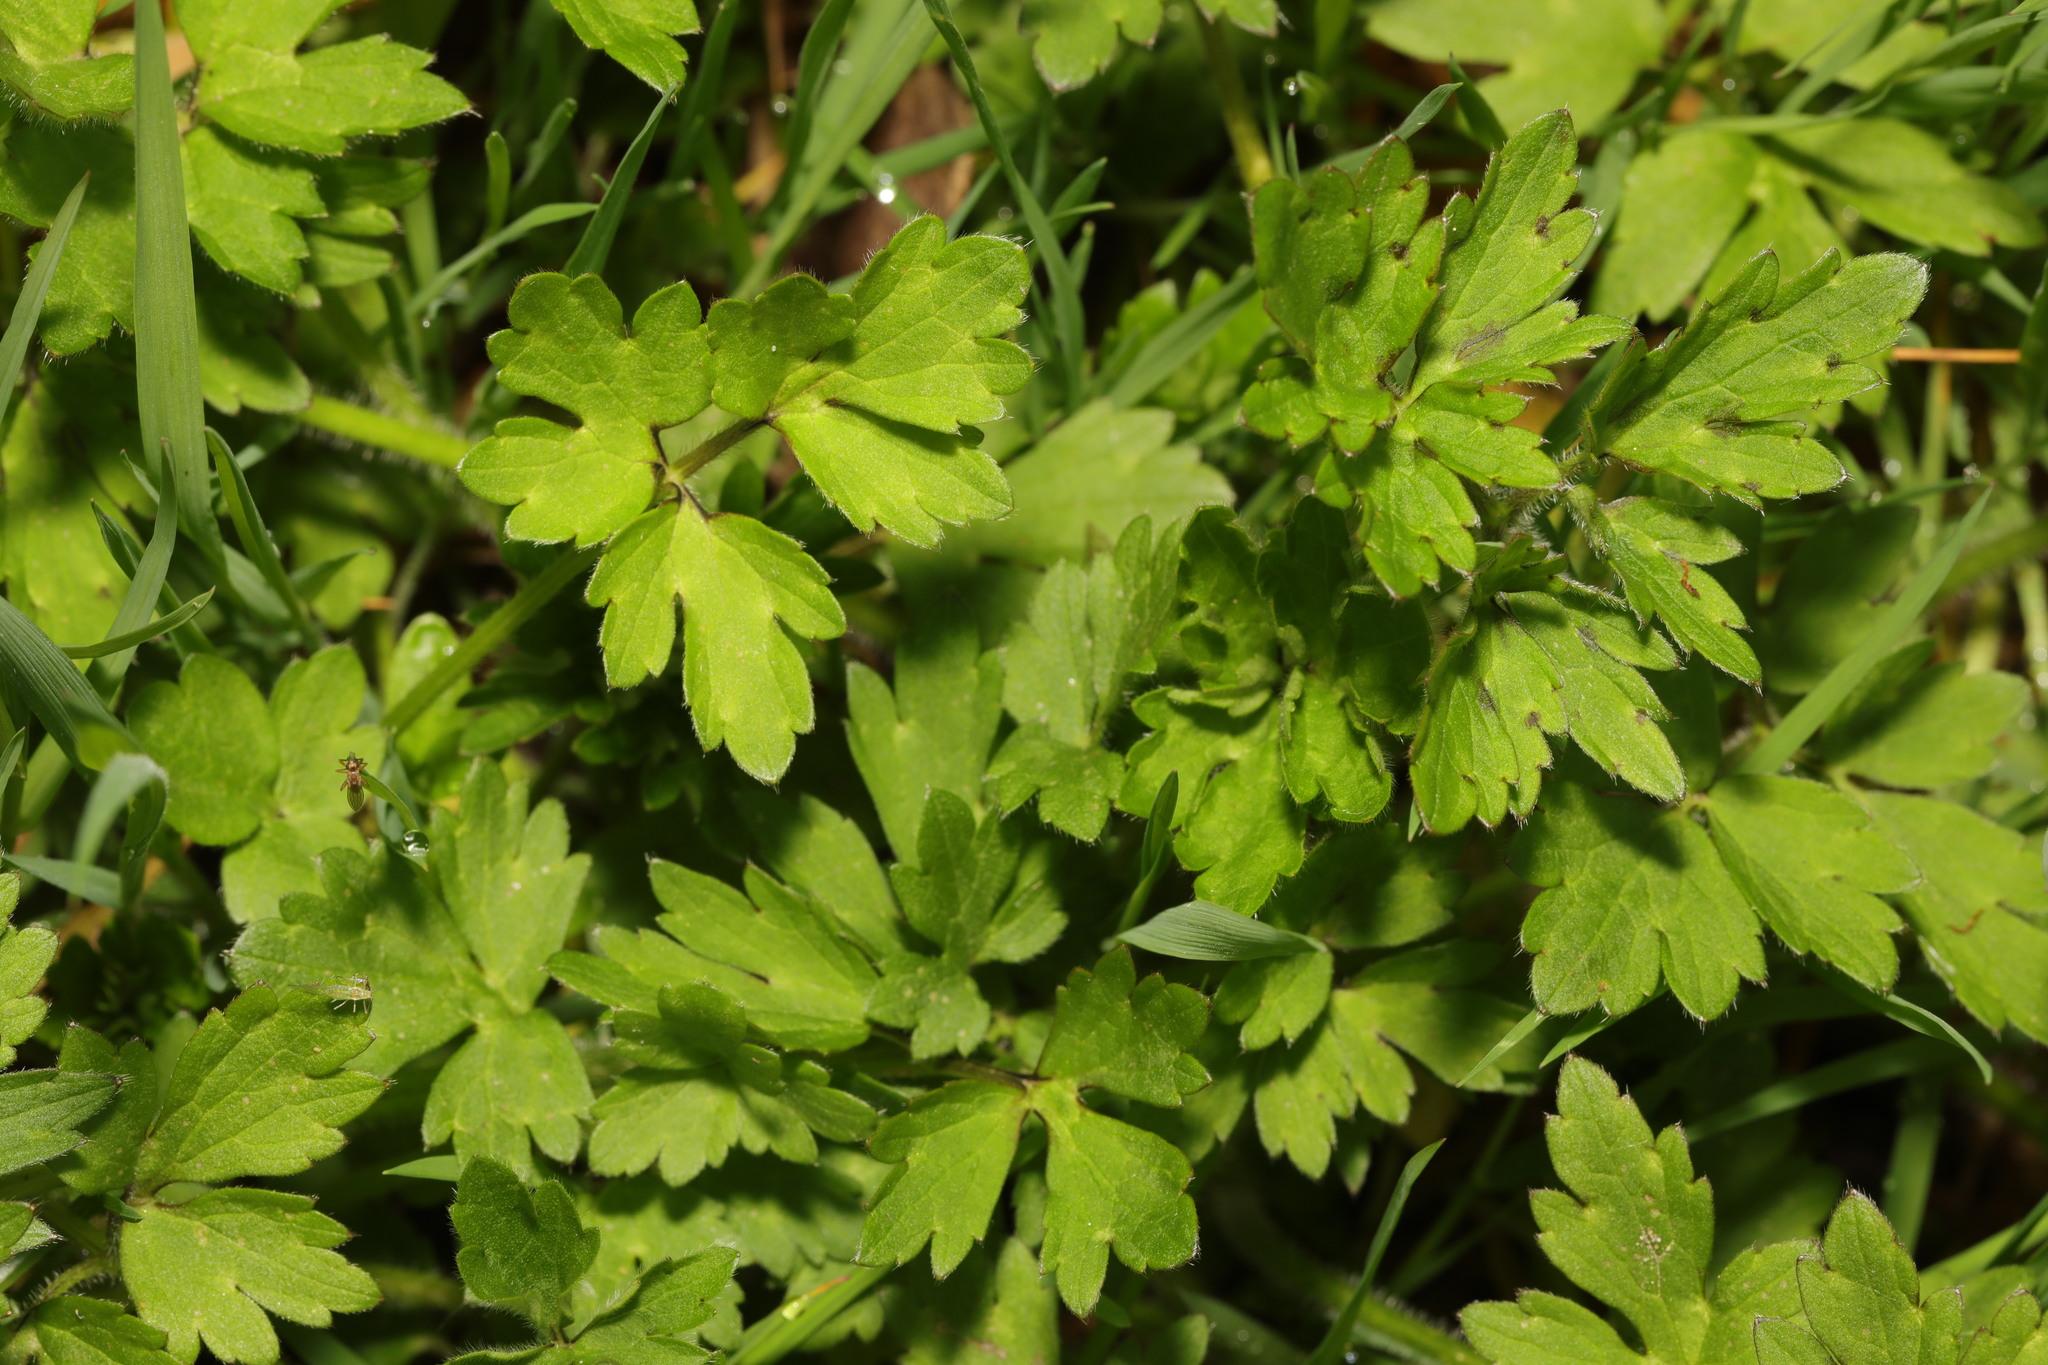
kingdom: Plantae
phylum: Tracheophyta
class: Magnoliopsida
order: Ranunculales
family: Ranunculaceae
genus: Ranunculus
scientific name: Ranunculus repens
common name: Creeping buttercup
